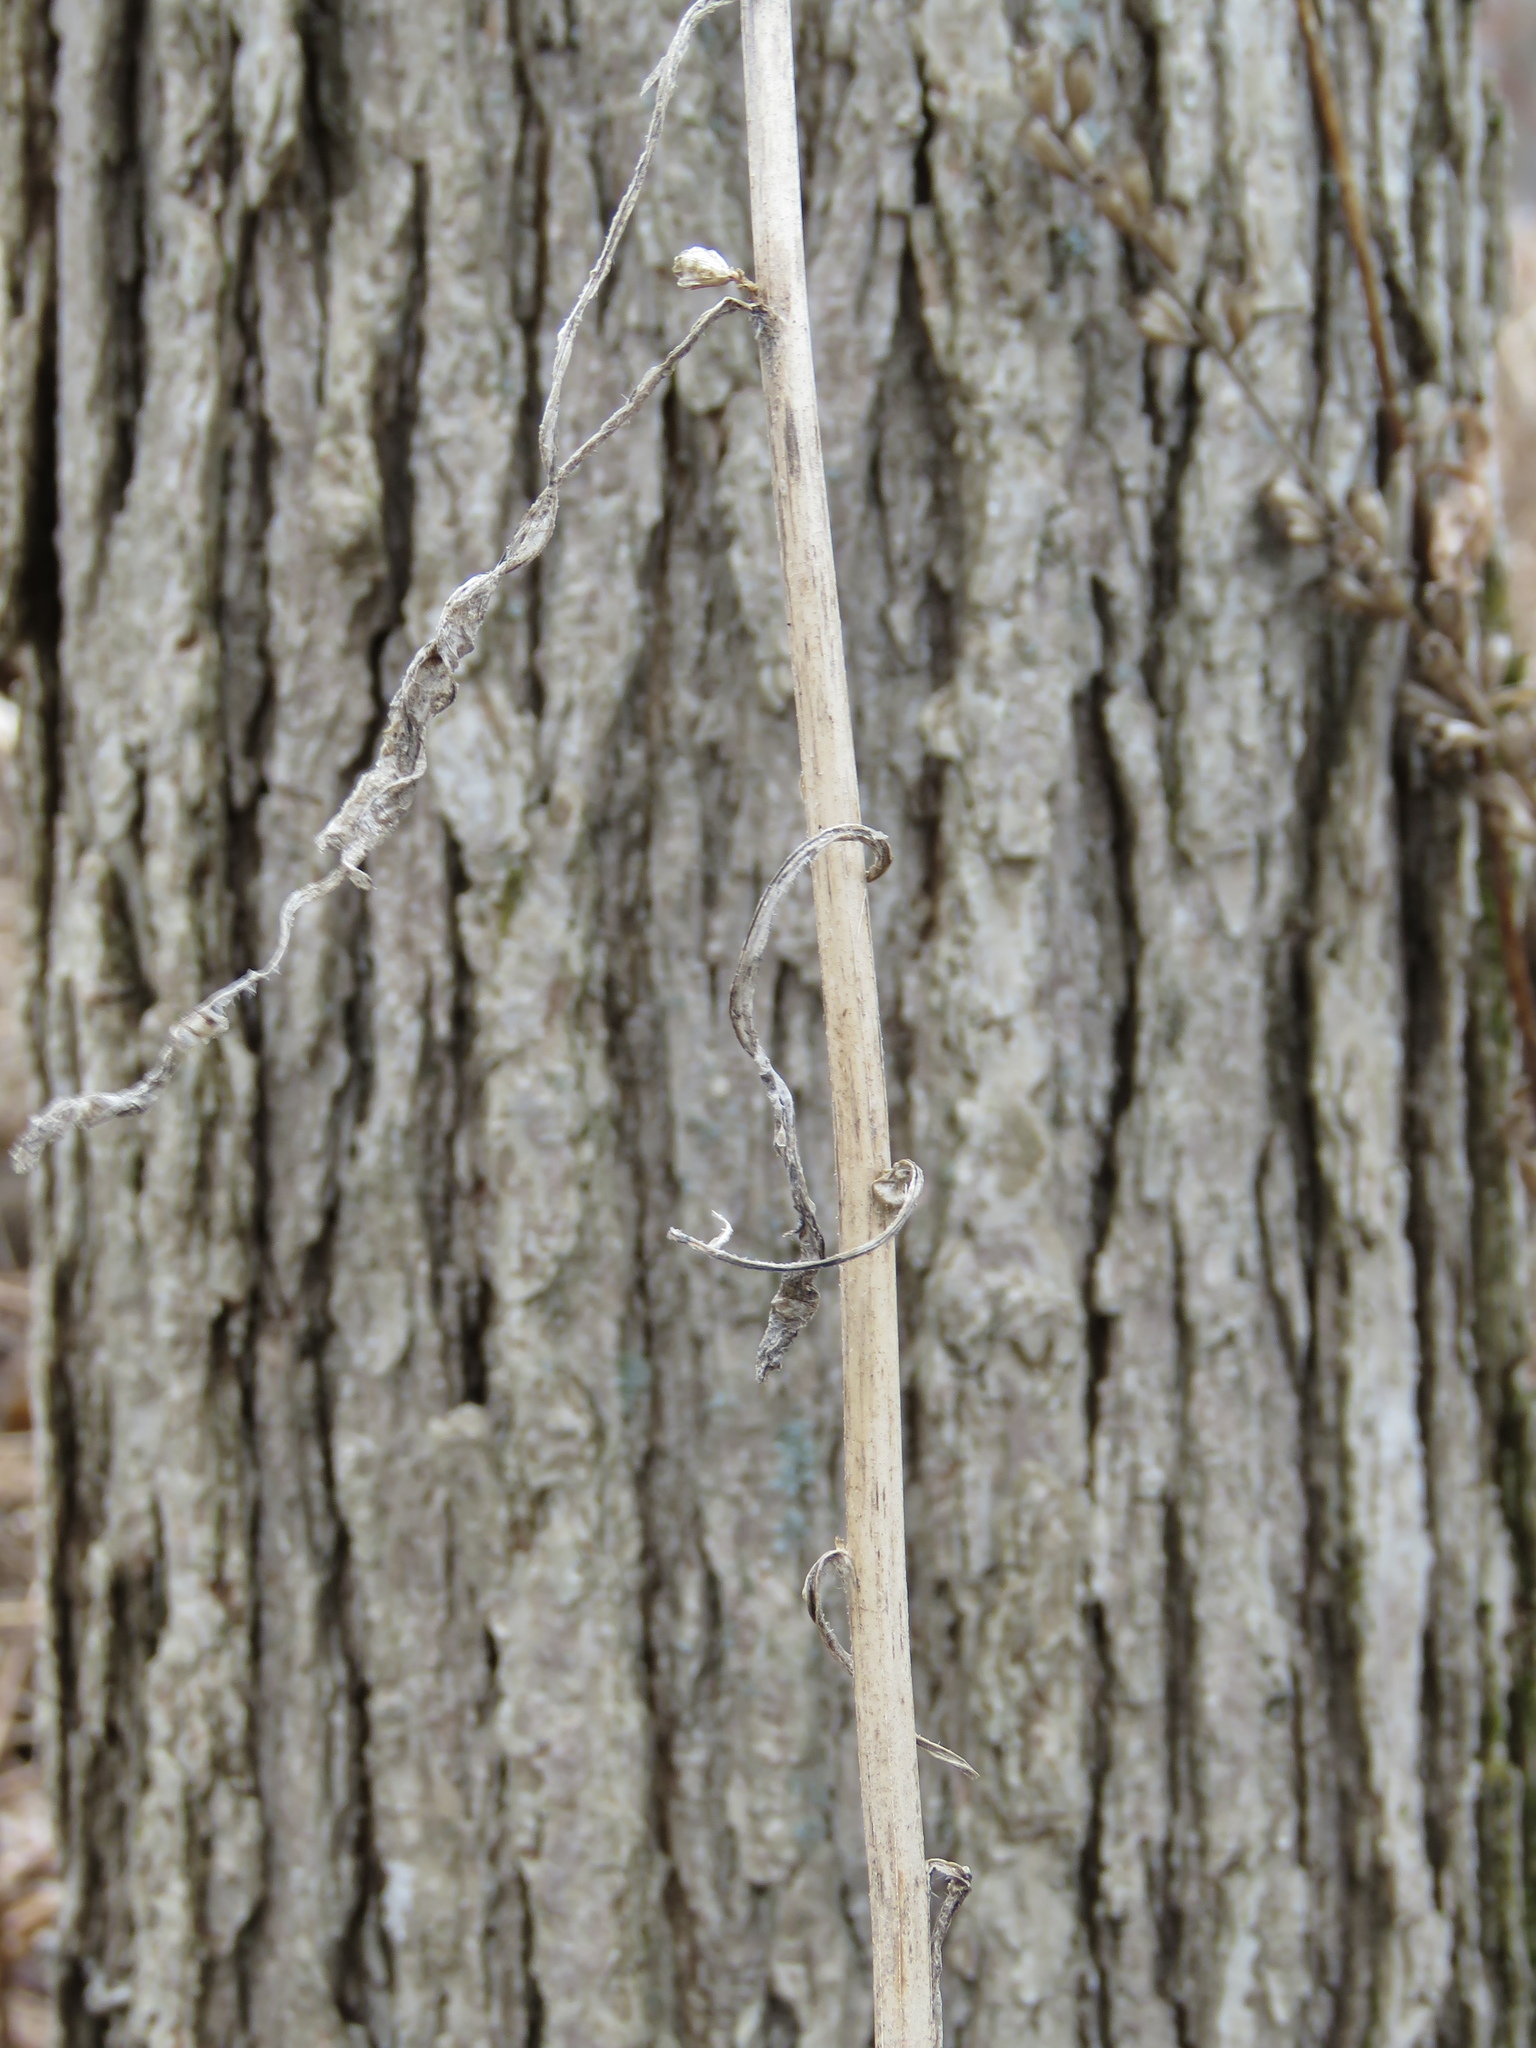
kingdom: Plantae
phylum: Tracheophyta
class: Magnoliopsida
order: Asterales
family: Campanulaceae
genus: Campanulastrum
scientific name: Campanulastrum americanum
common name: American bellflower
